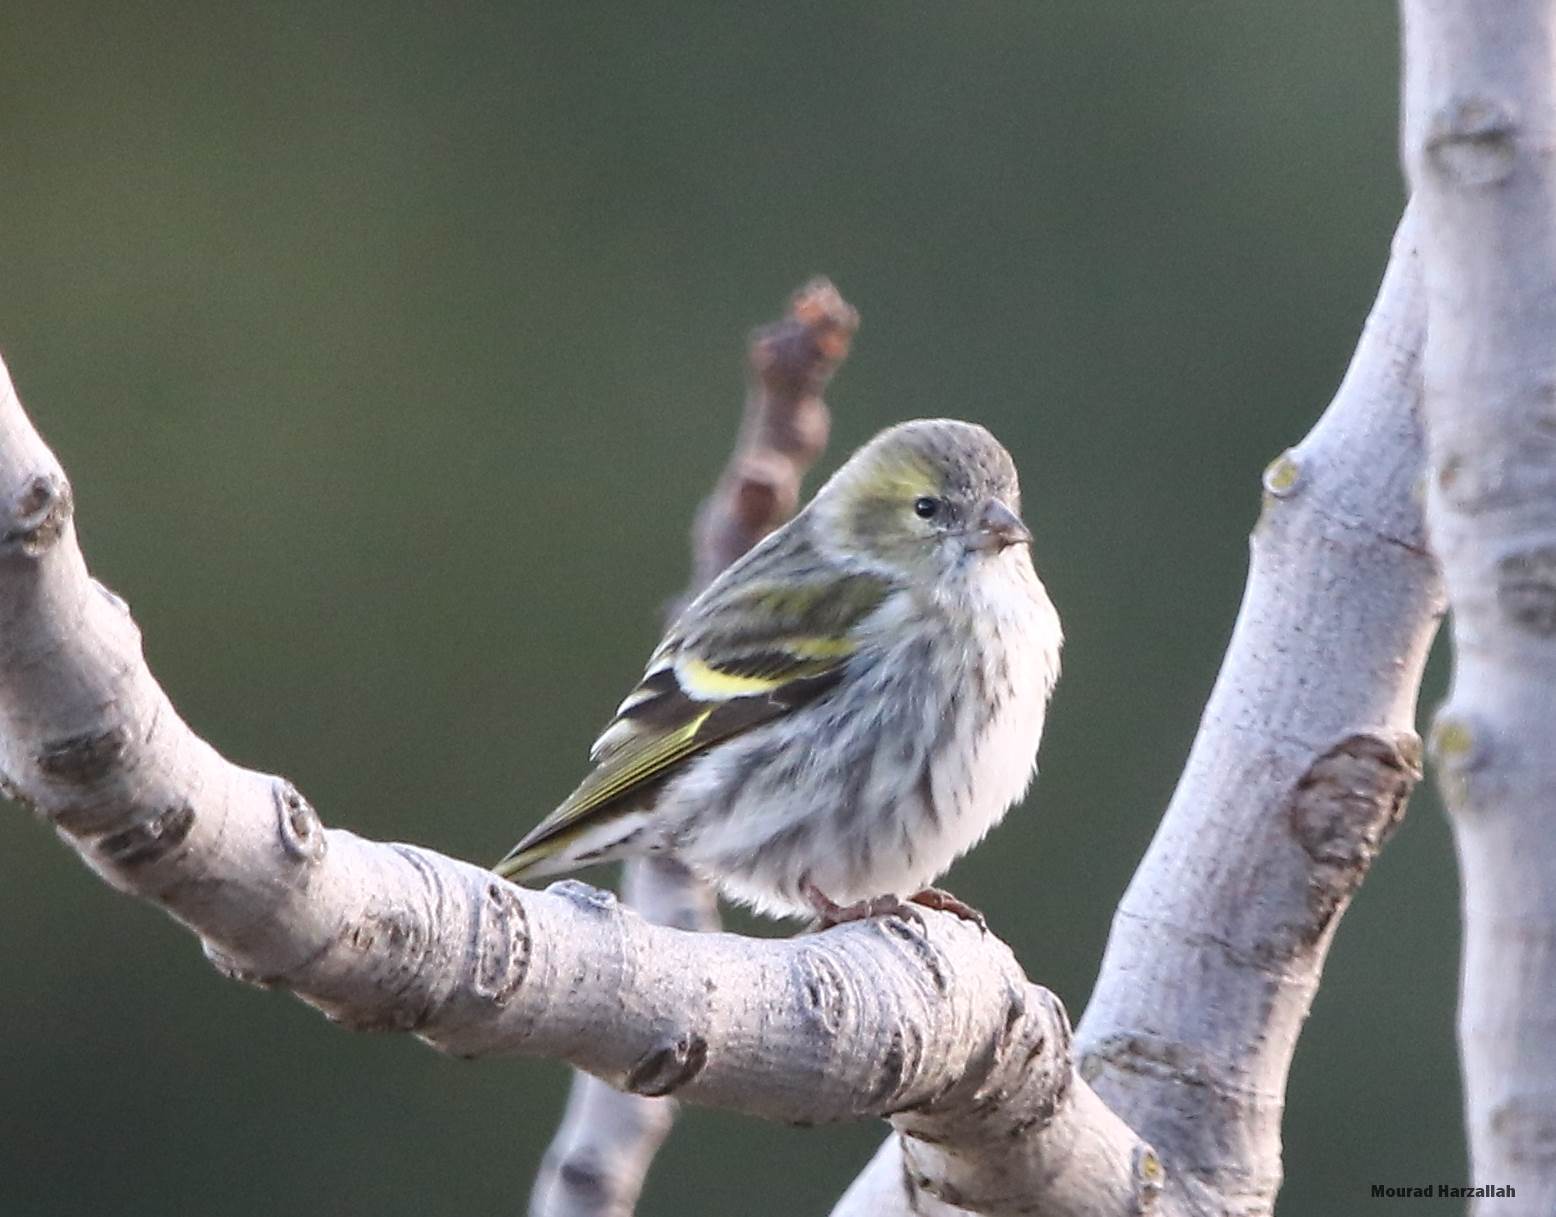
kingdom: Animalia
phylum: Chordata
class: Aves
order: Passeriformes
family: Fringillidae
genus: Spinus
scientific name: Spinus spinus
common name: Eurasian siskin
